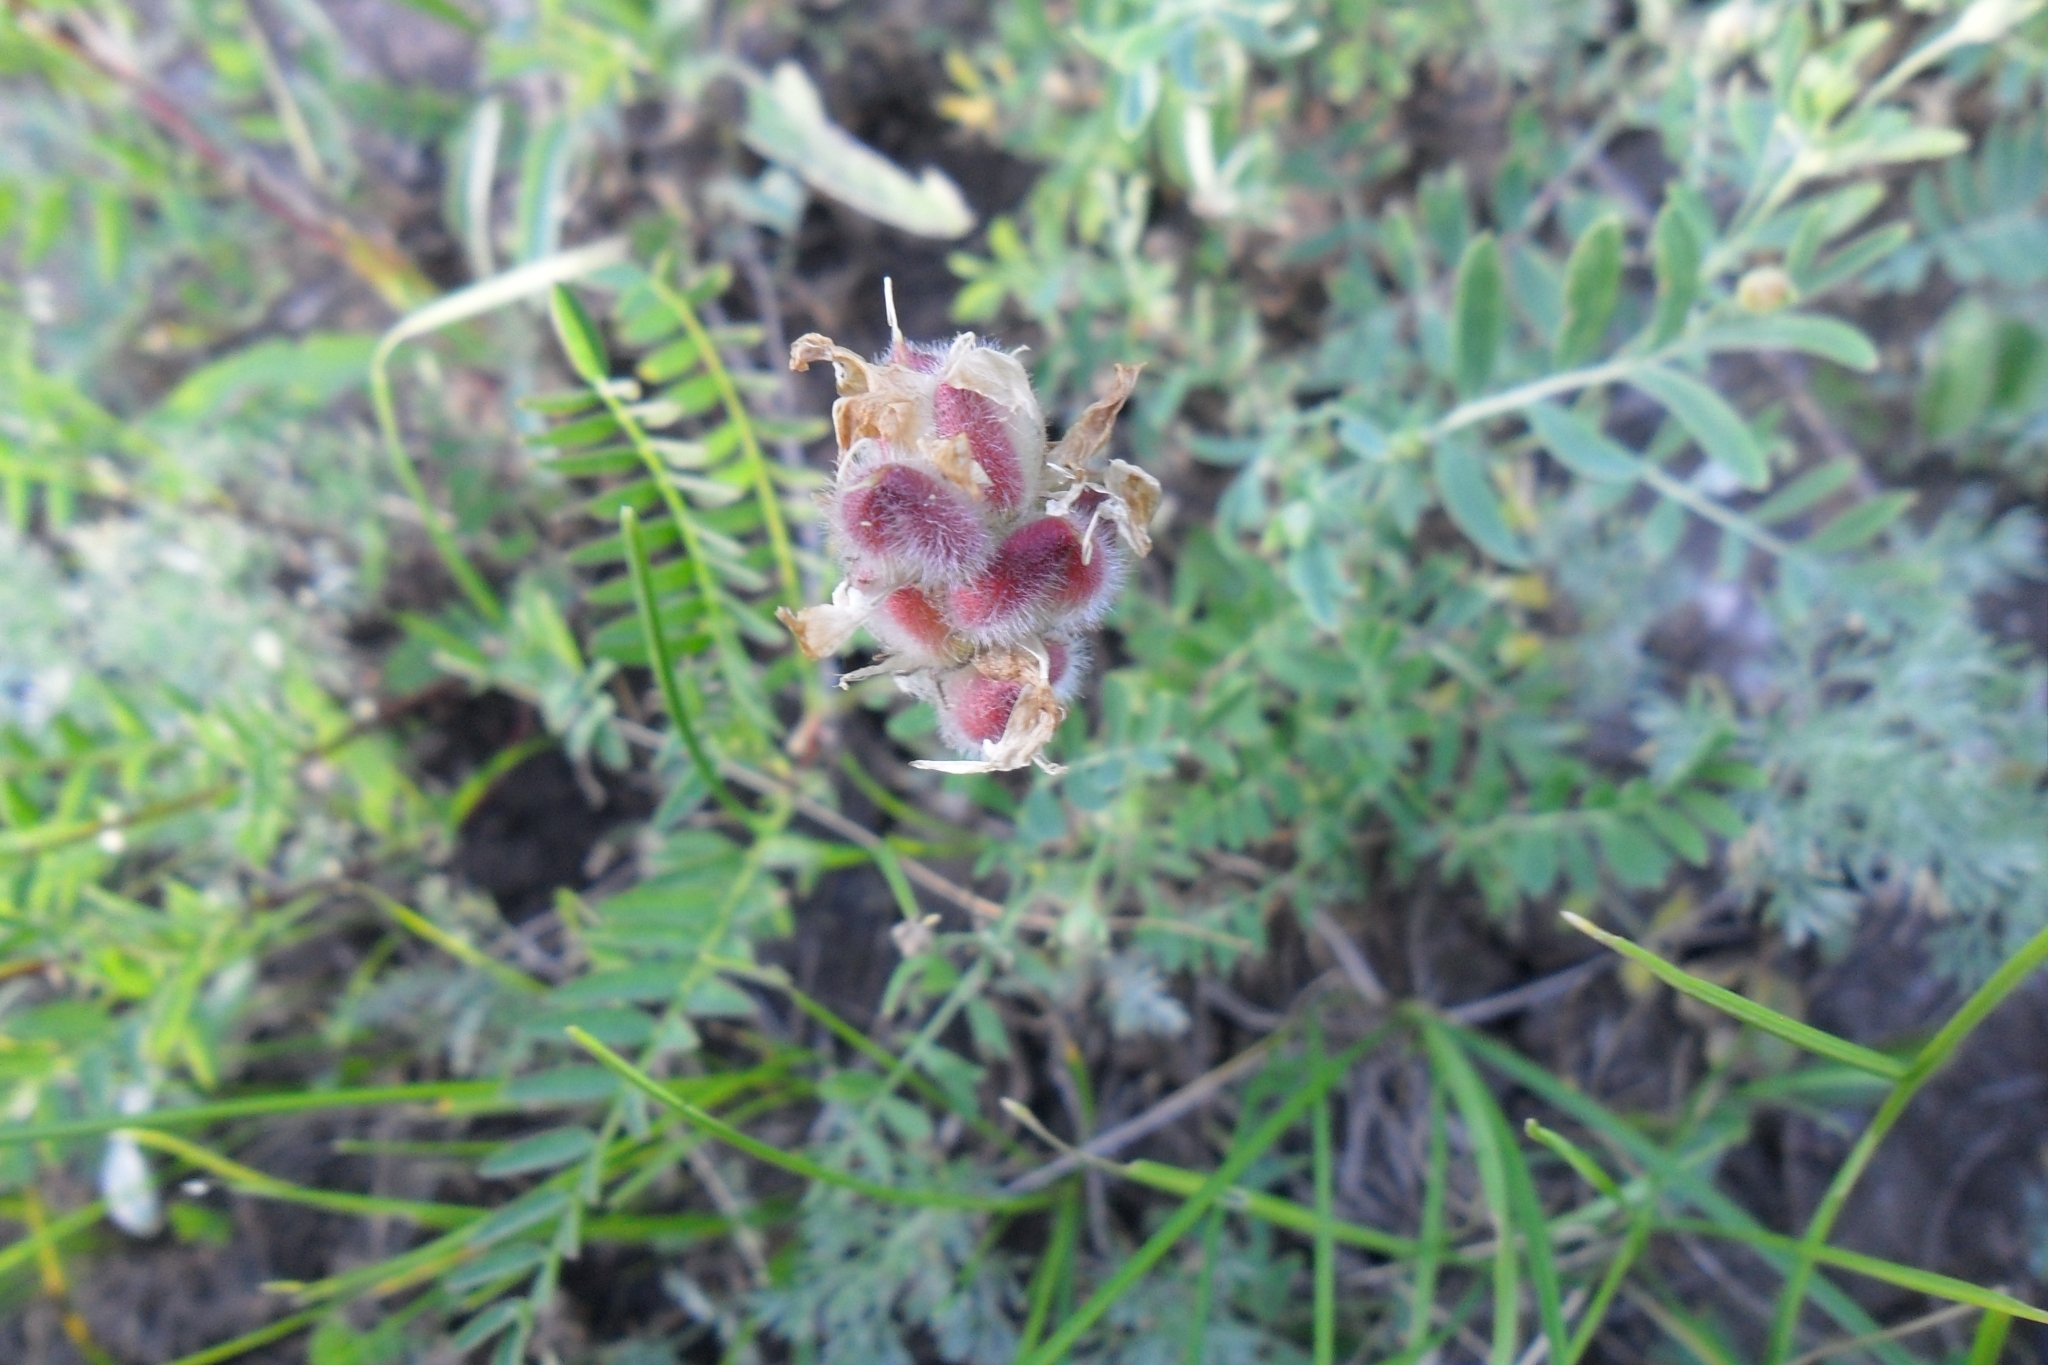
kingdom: Plantae
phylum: Tracheophyta
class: Magnoliopsida
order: Fabales
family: Fabaceae
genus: Astragalus
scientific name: Astragalus danicus
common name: Purple milk-vetch
